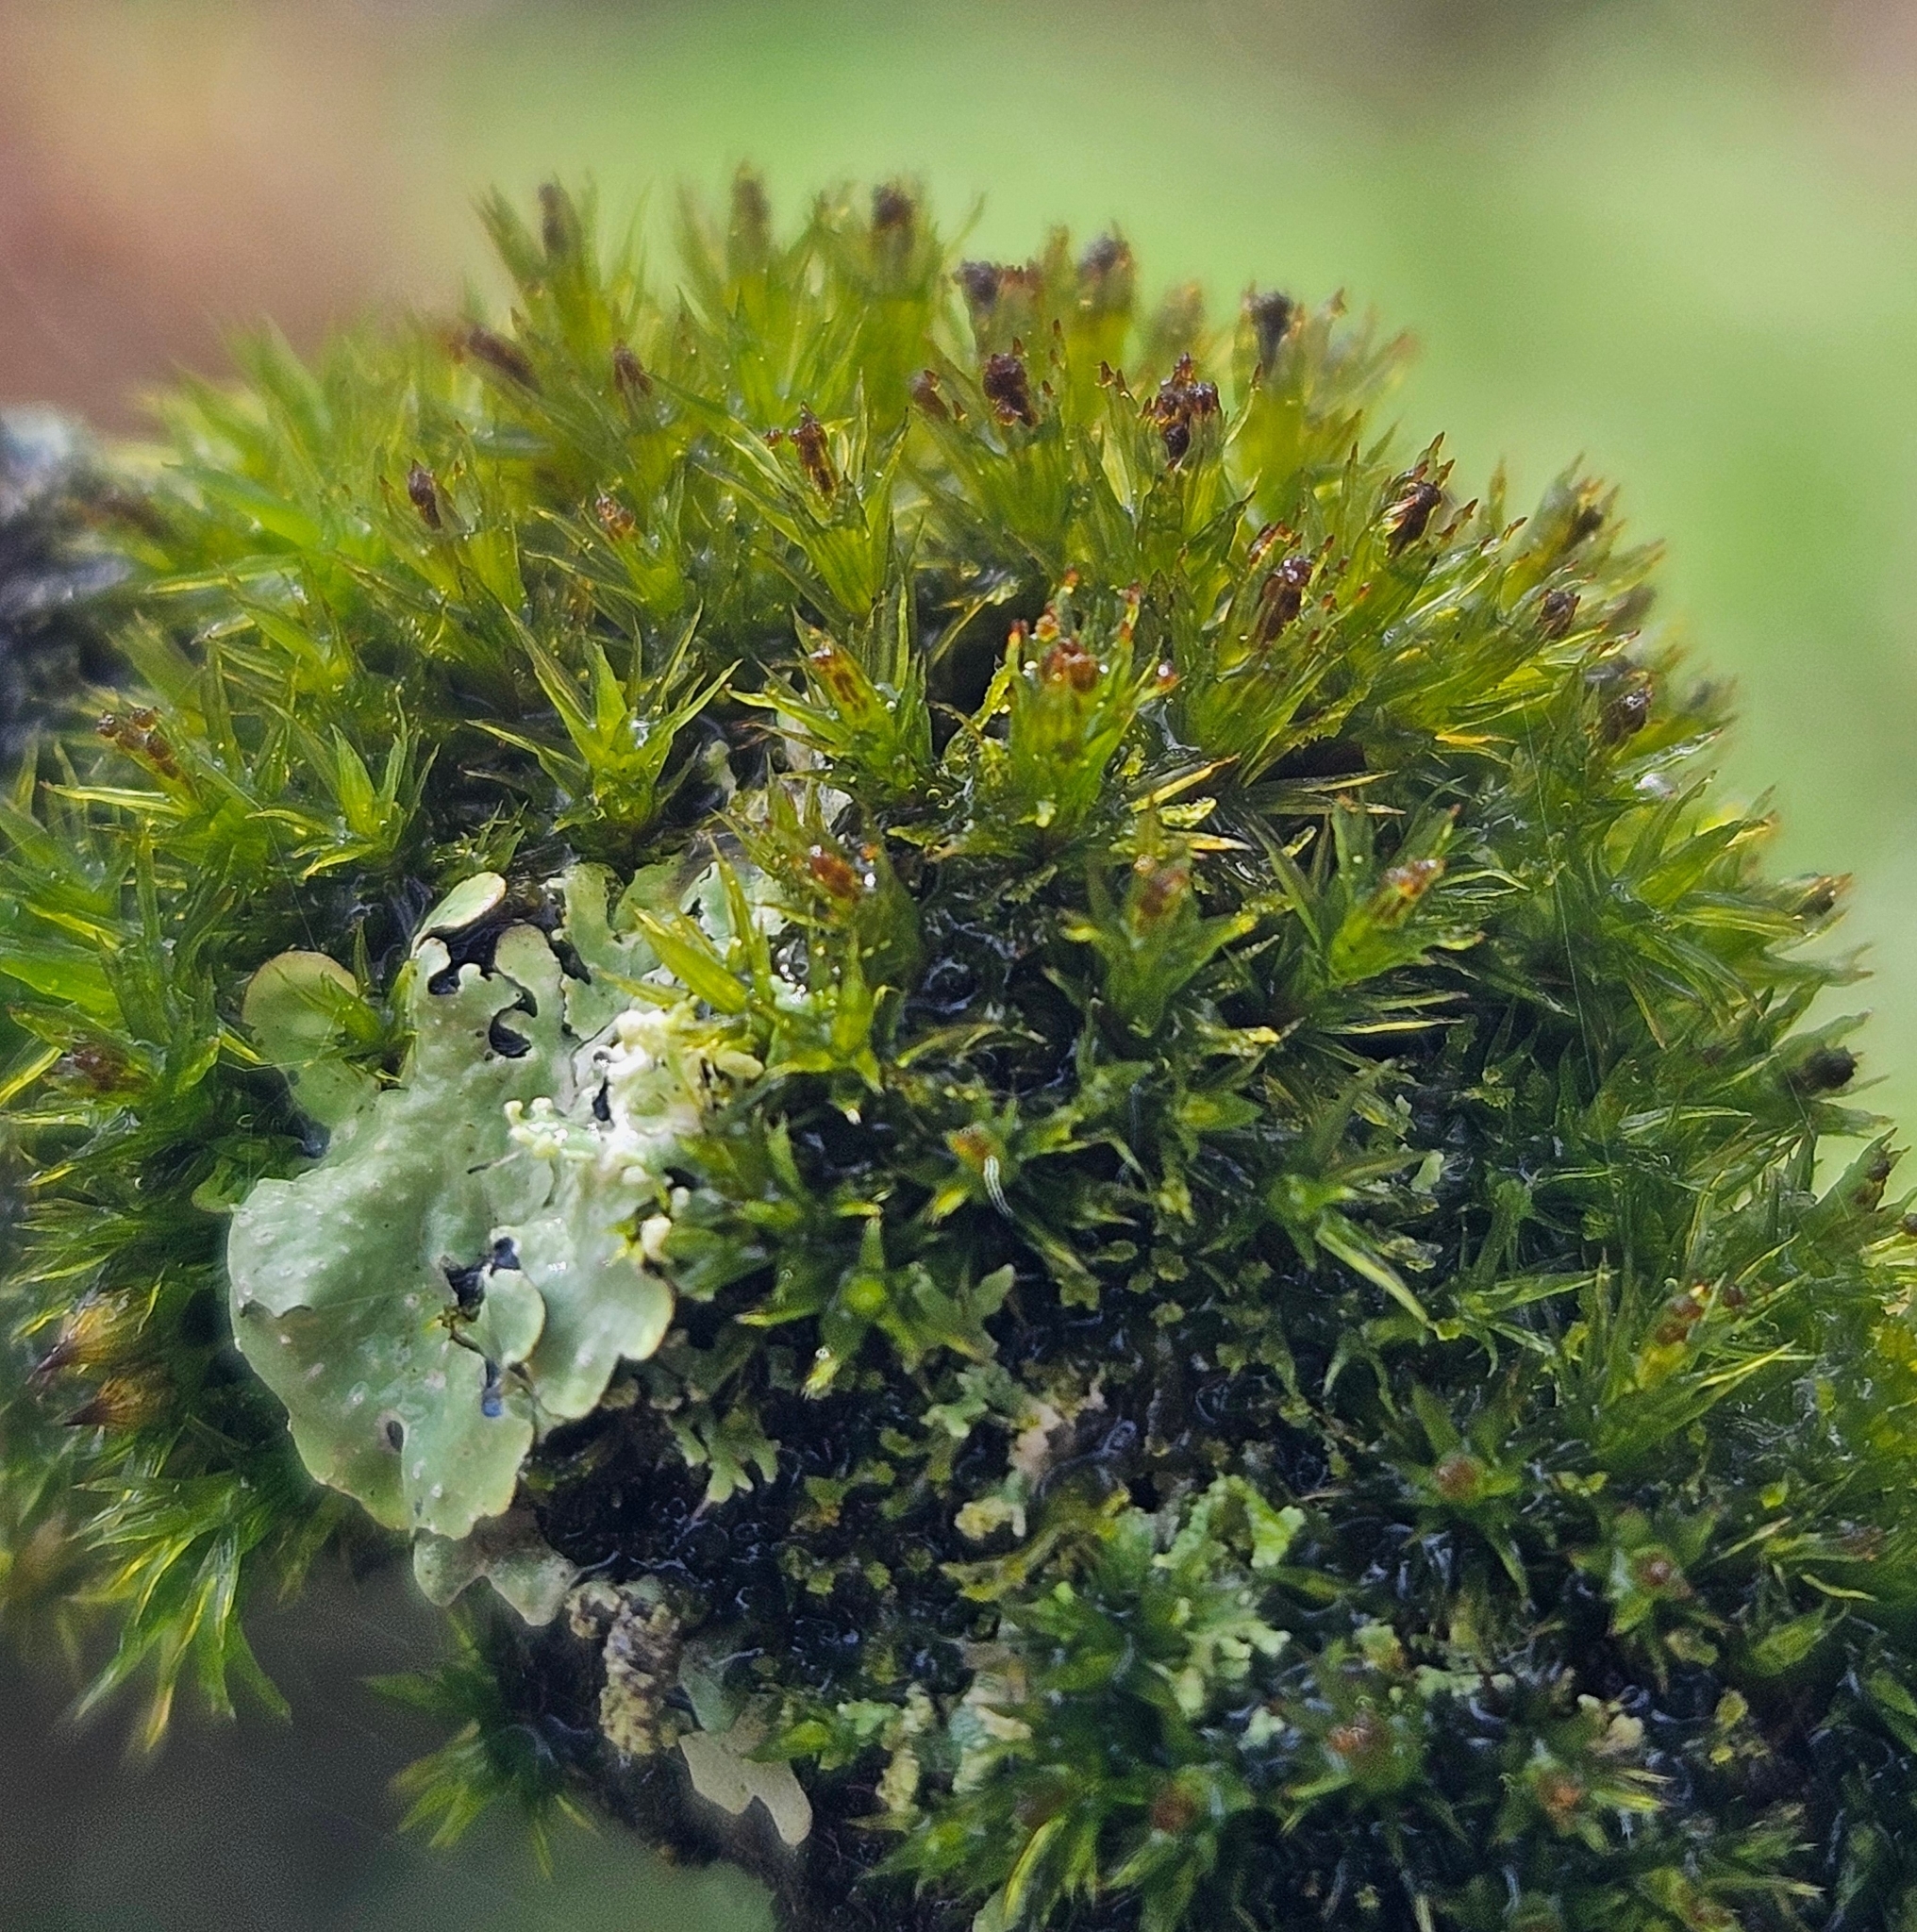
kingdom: Plantae
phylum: Bryophyta
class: Bryopsida
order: Orthotrichales
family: Orthotrichaceae
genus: Plenogemma
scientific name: Plenogemma phyllantha
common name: Frizzled pincushion
